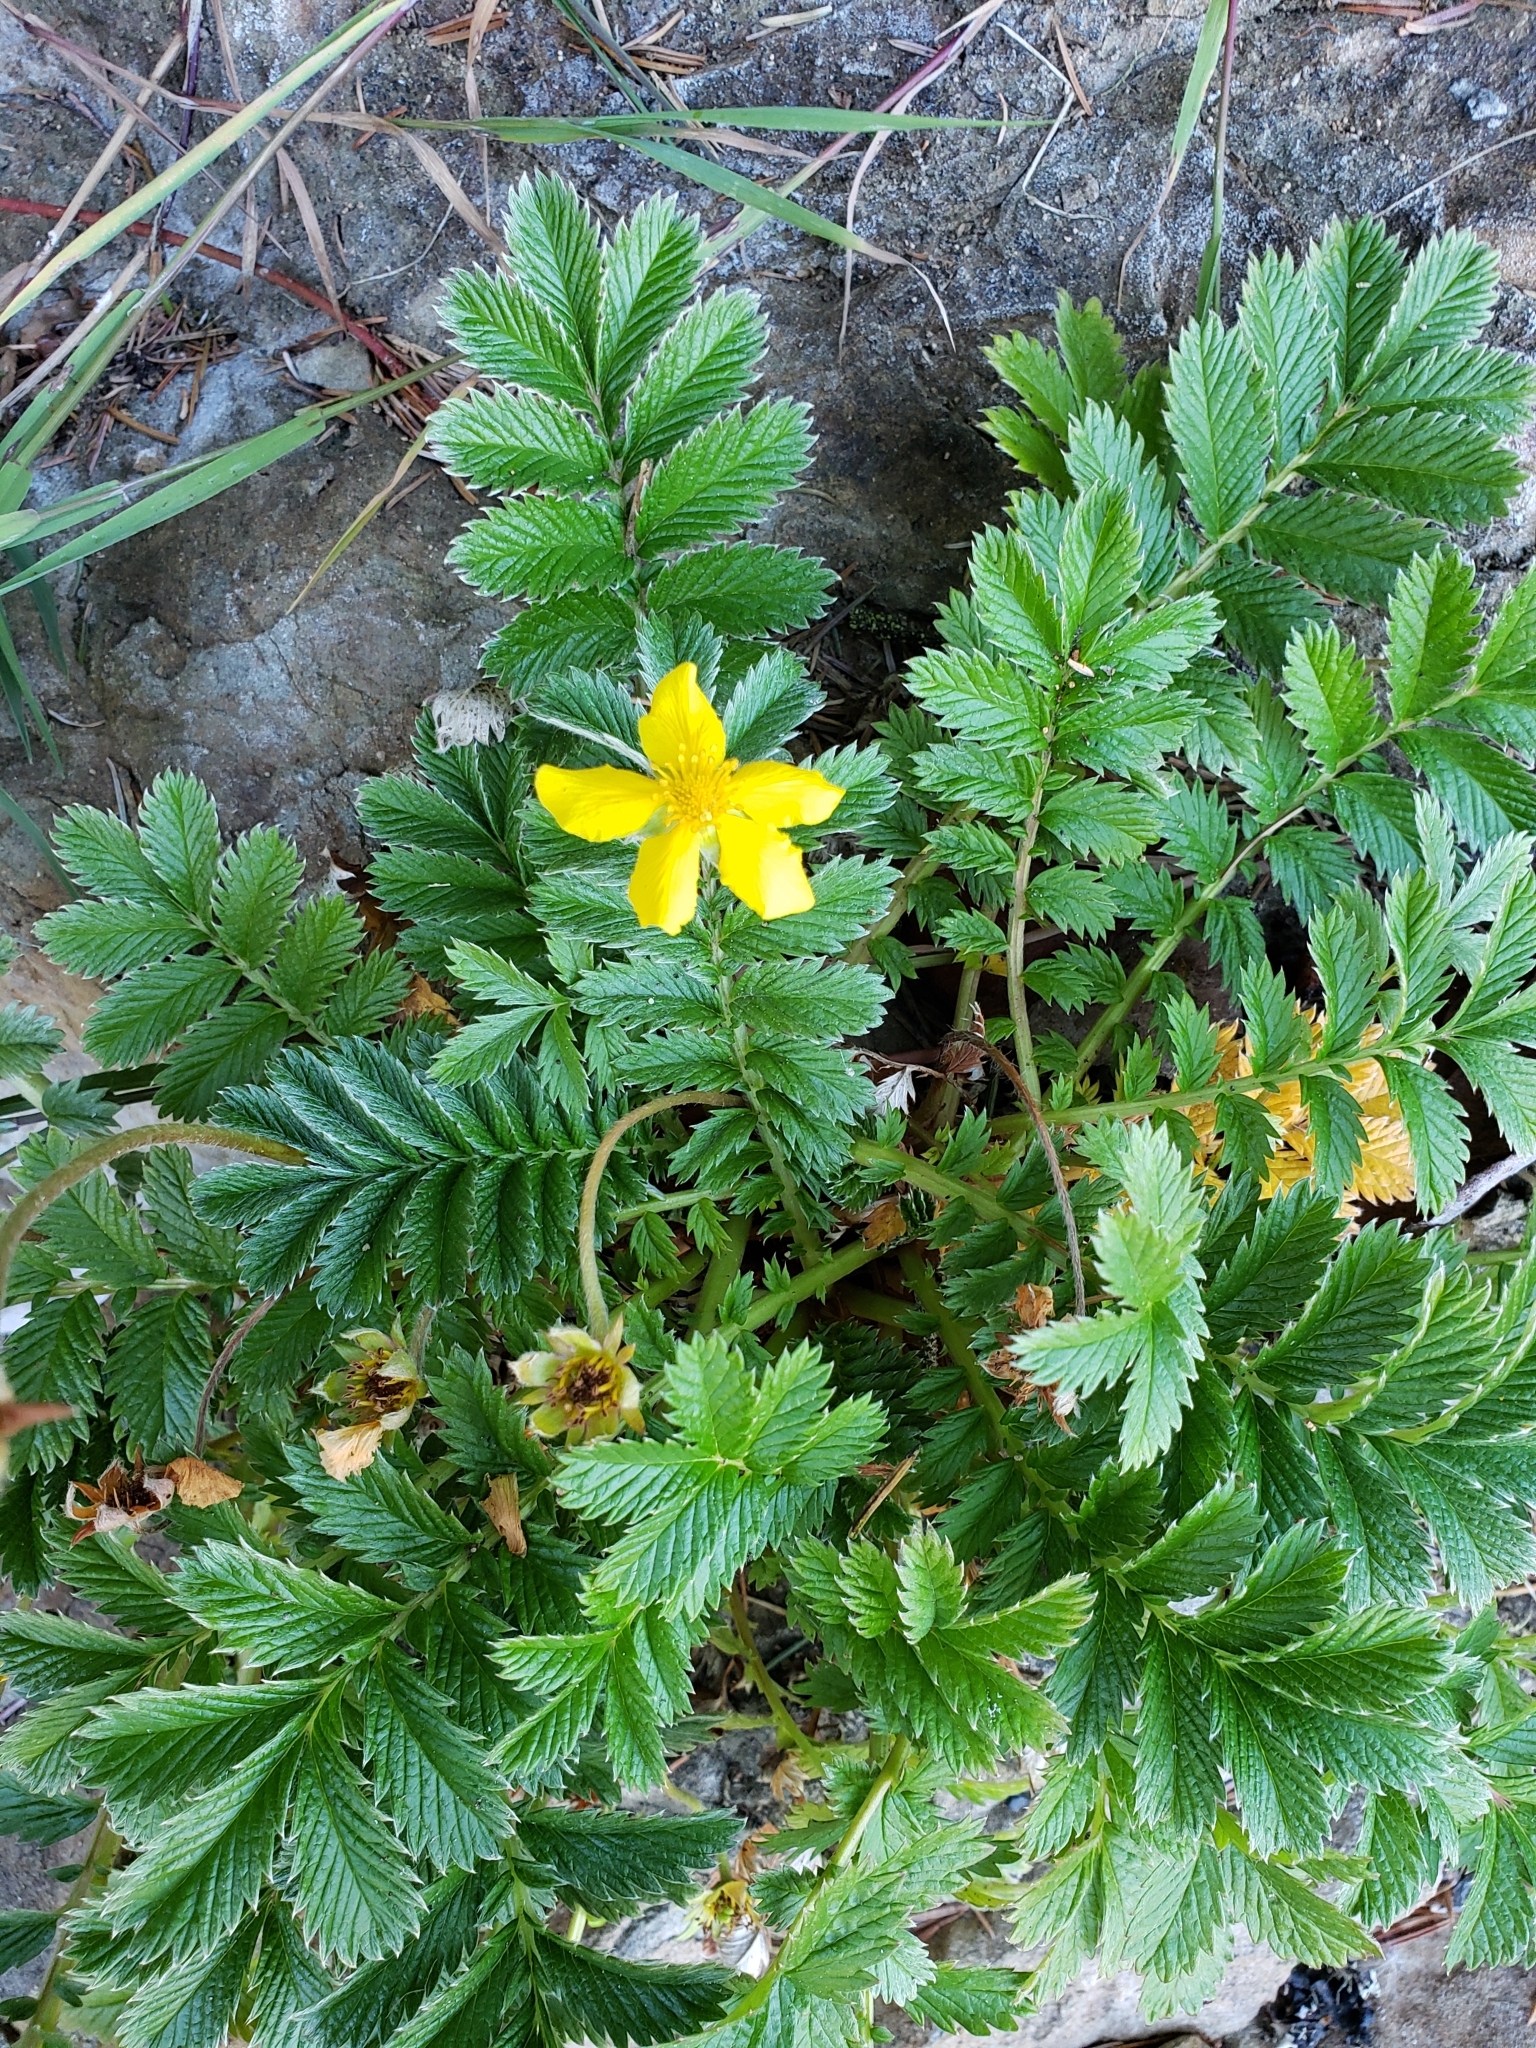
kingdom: Plantae
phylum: Tracheophyta
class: Magnoliopsida
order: Rosales
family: Rosaceae
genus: Argentina
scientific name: Argentina anserina
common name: Common silverweed
